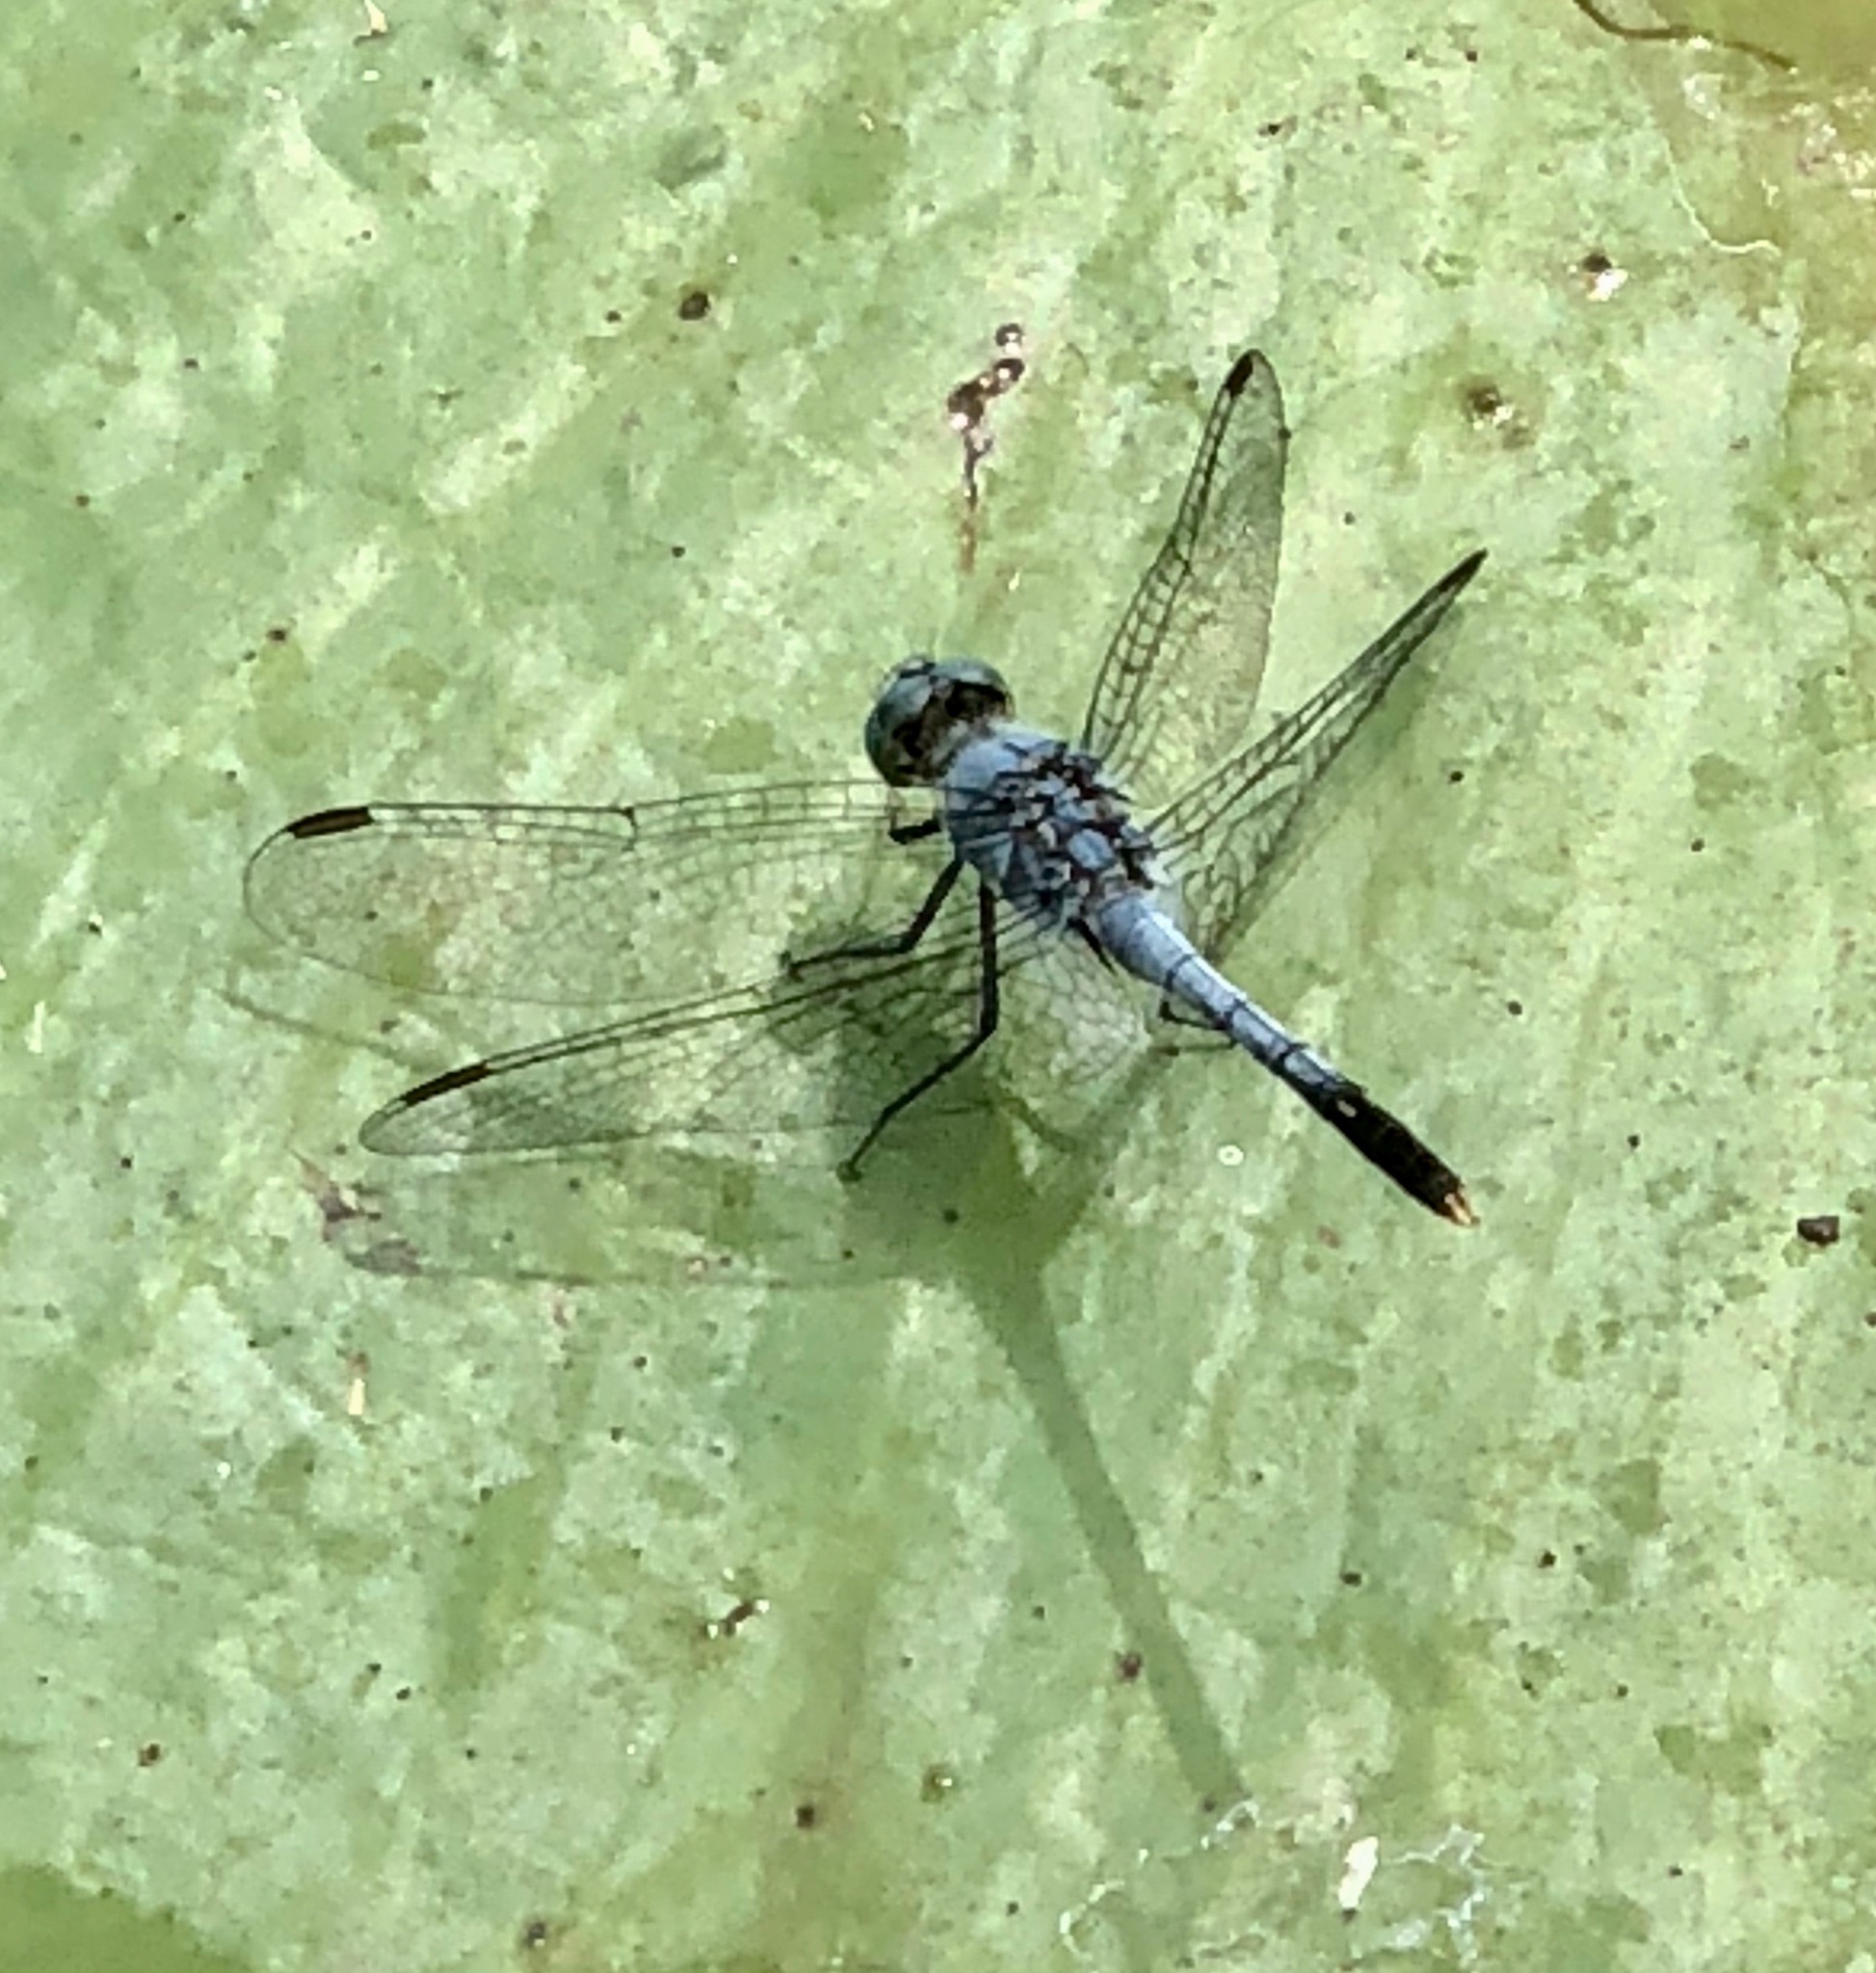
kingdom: Animalia
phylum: Arthropoda
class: Insecta
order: Odonata
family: Libellulidae
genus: Diplacodes
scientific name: Diplacodes trivialis
